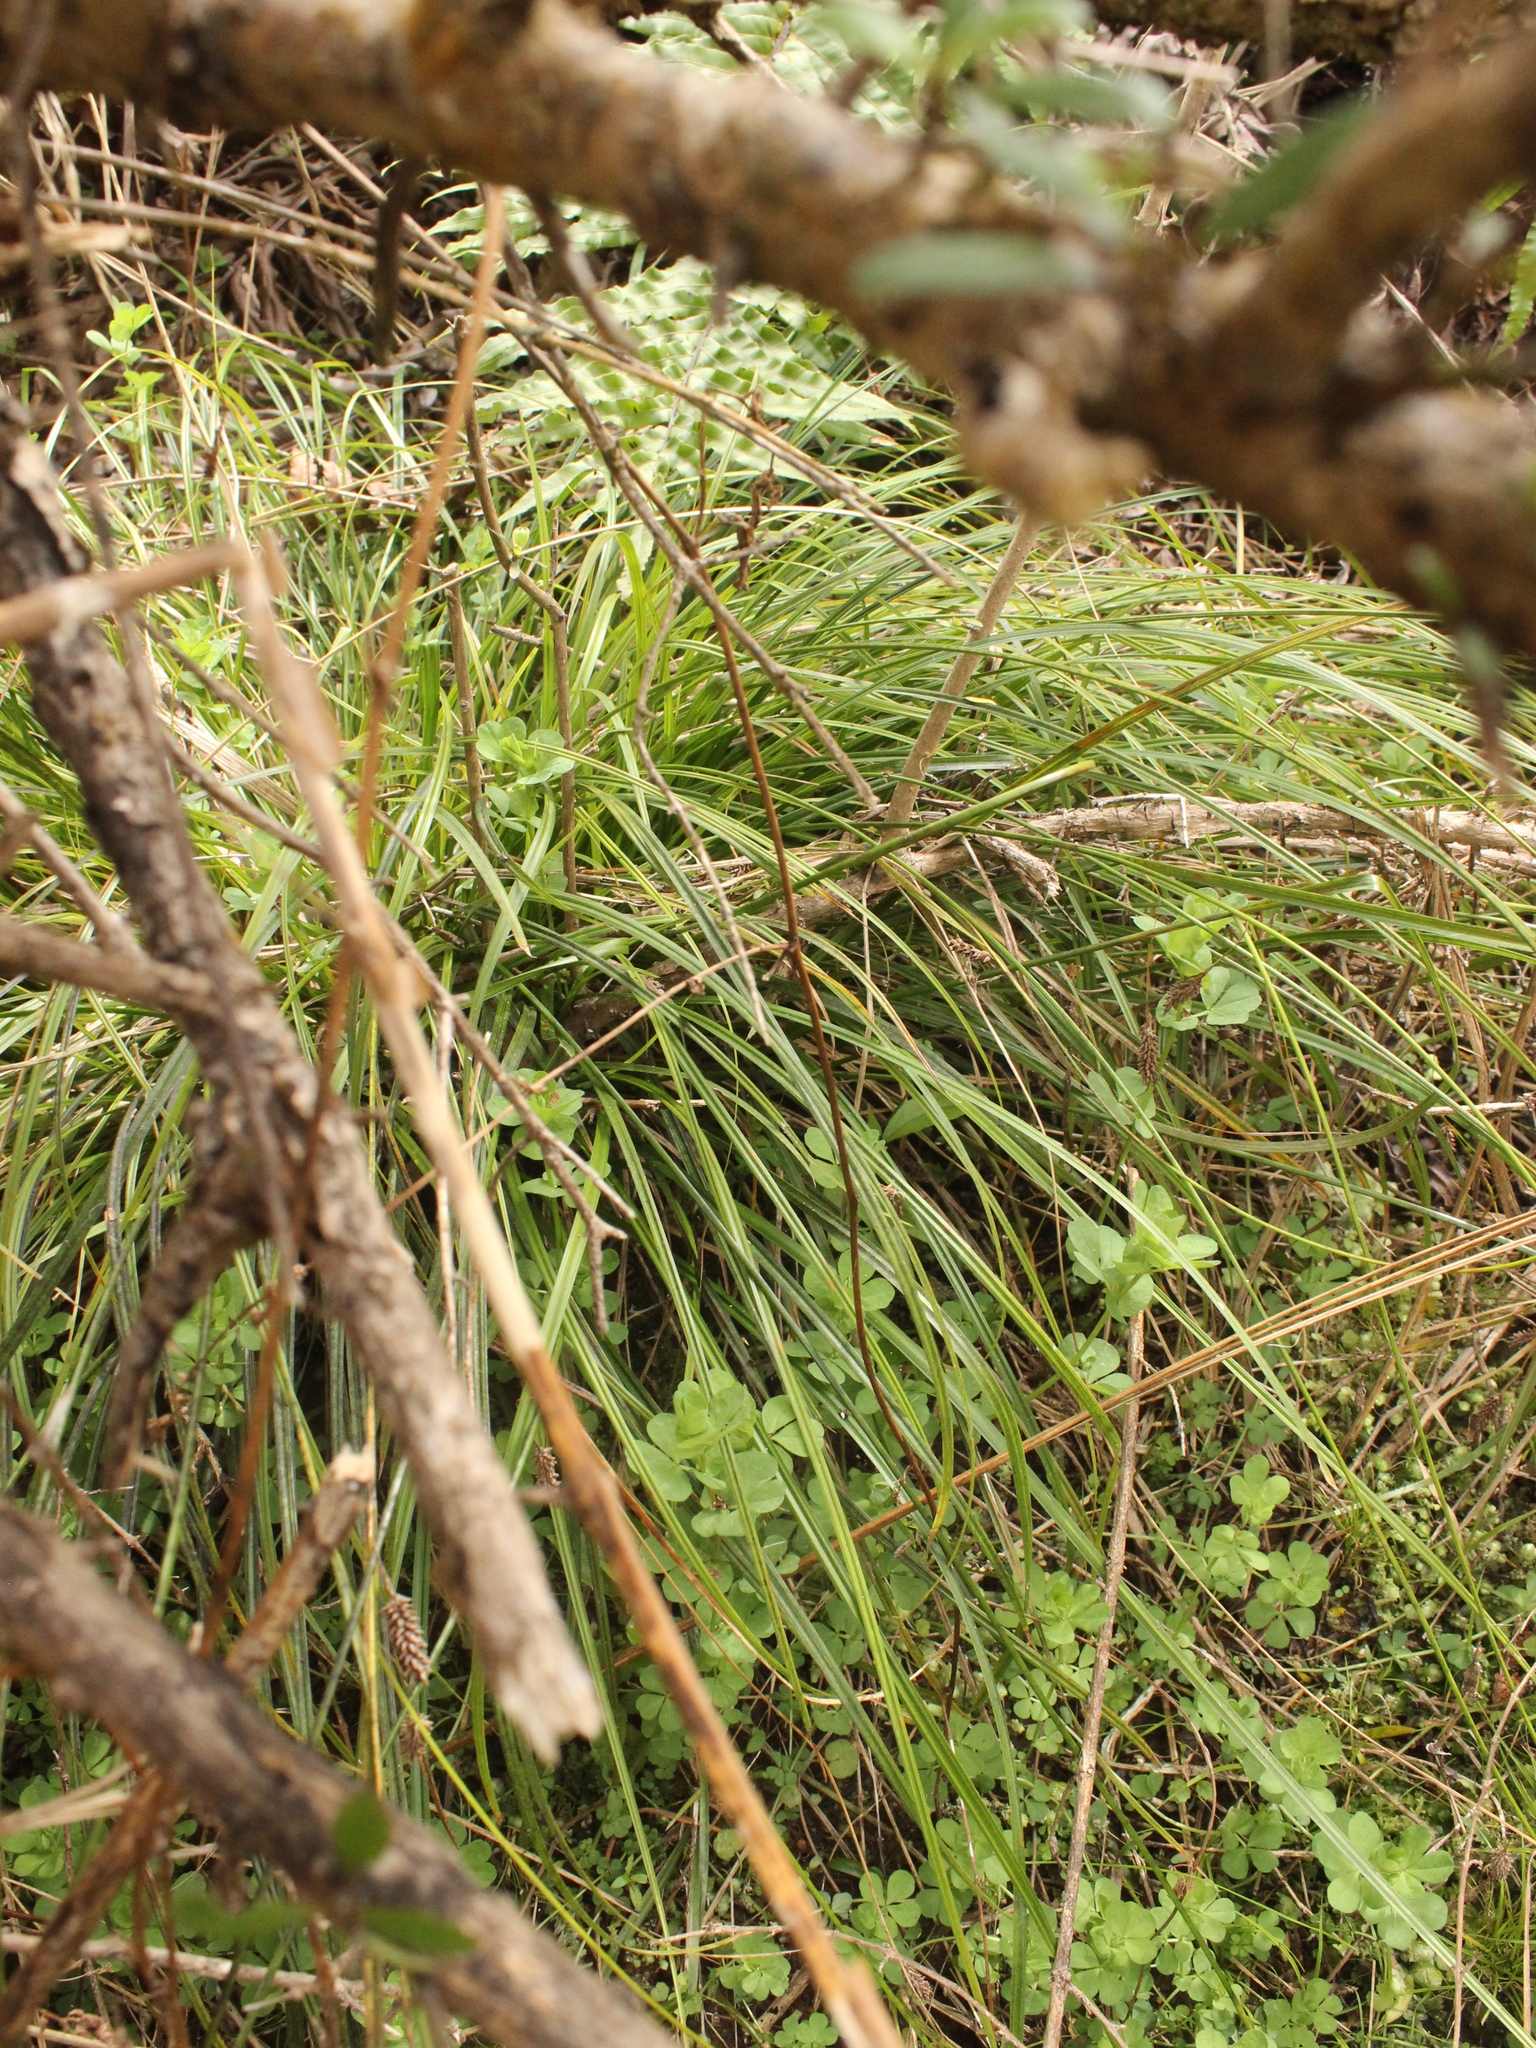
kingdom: Plantae
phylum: Tracheophyta
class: Liliopsida
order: Poales
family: Cyperaceae
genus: Carex
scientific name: Carex dissita
